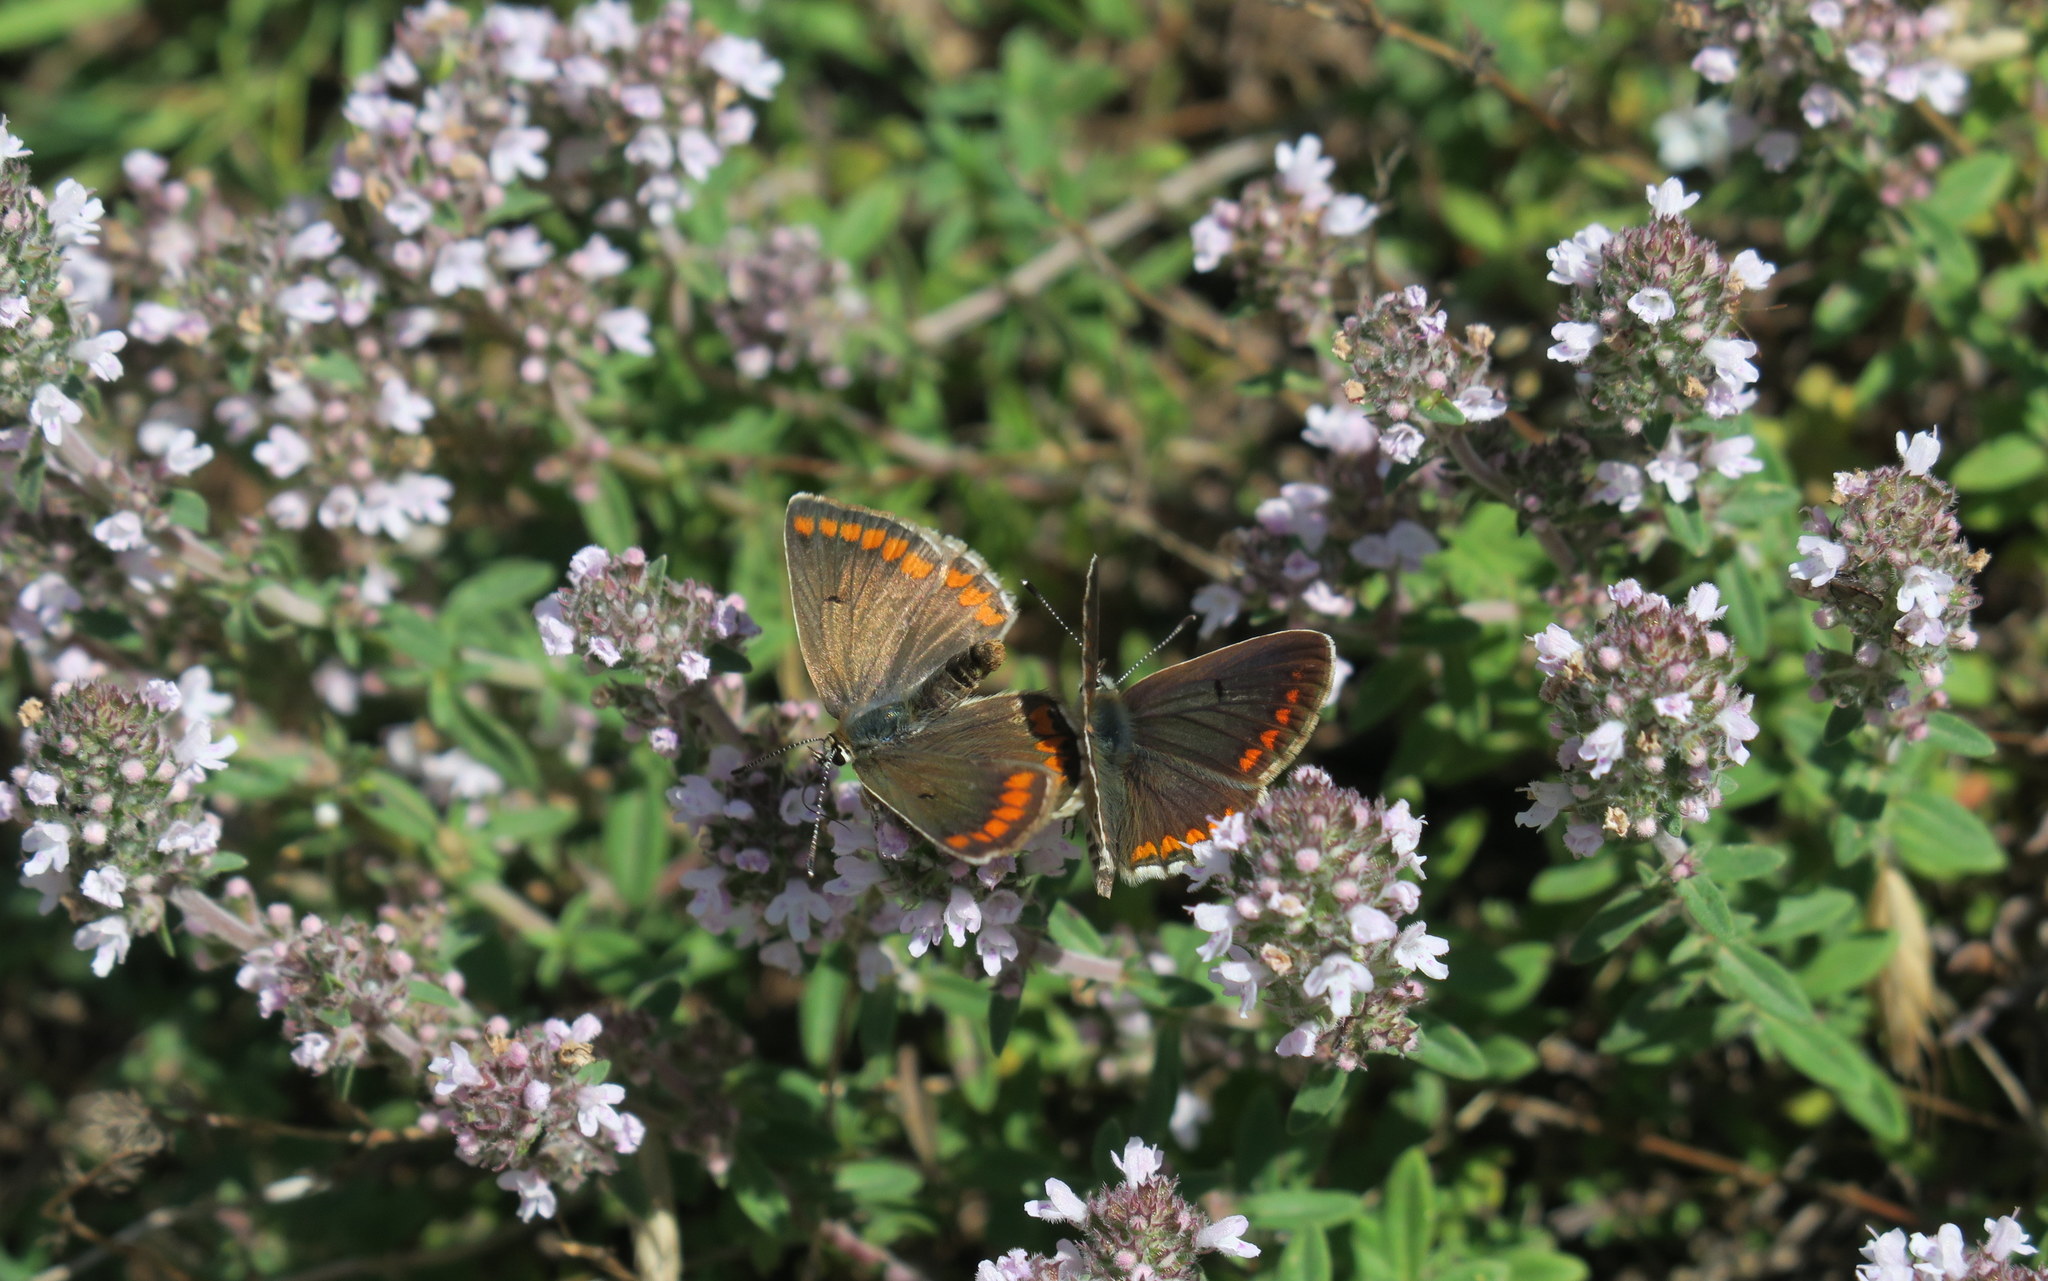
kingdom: Animalia
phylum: Arthropoda
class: Insecta
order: Lepidoptera
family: Lycaenidae
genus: Aricia
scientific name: Aricia agestis
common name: Brown argus
